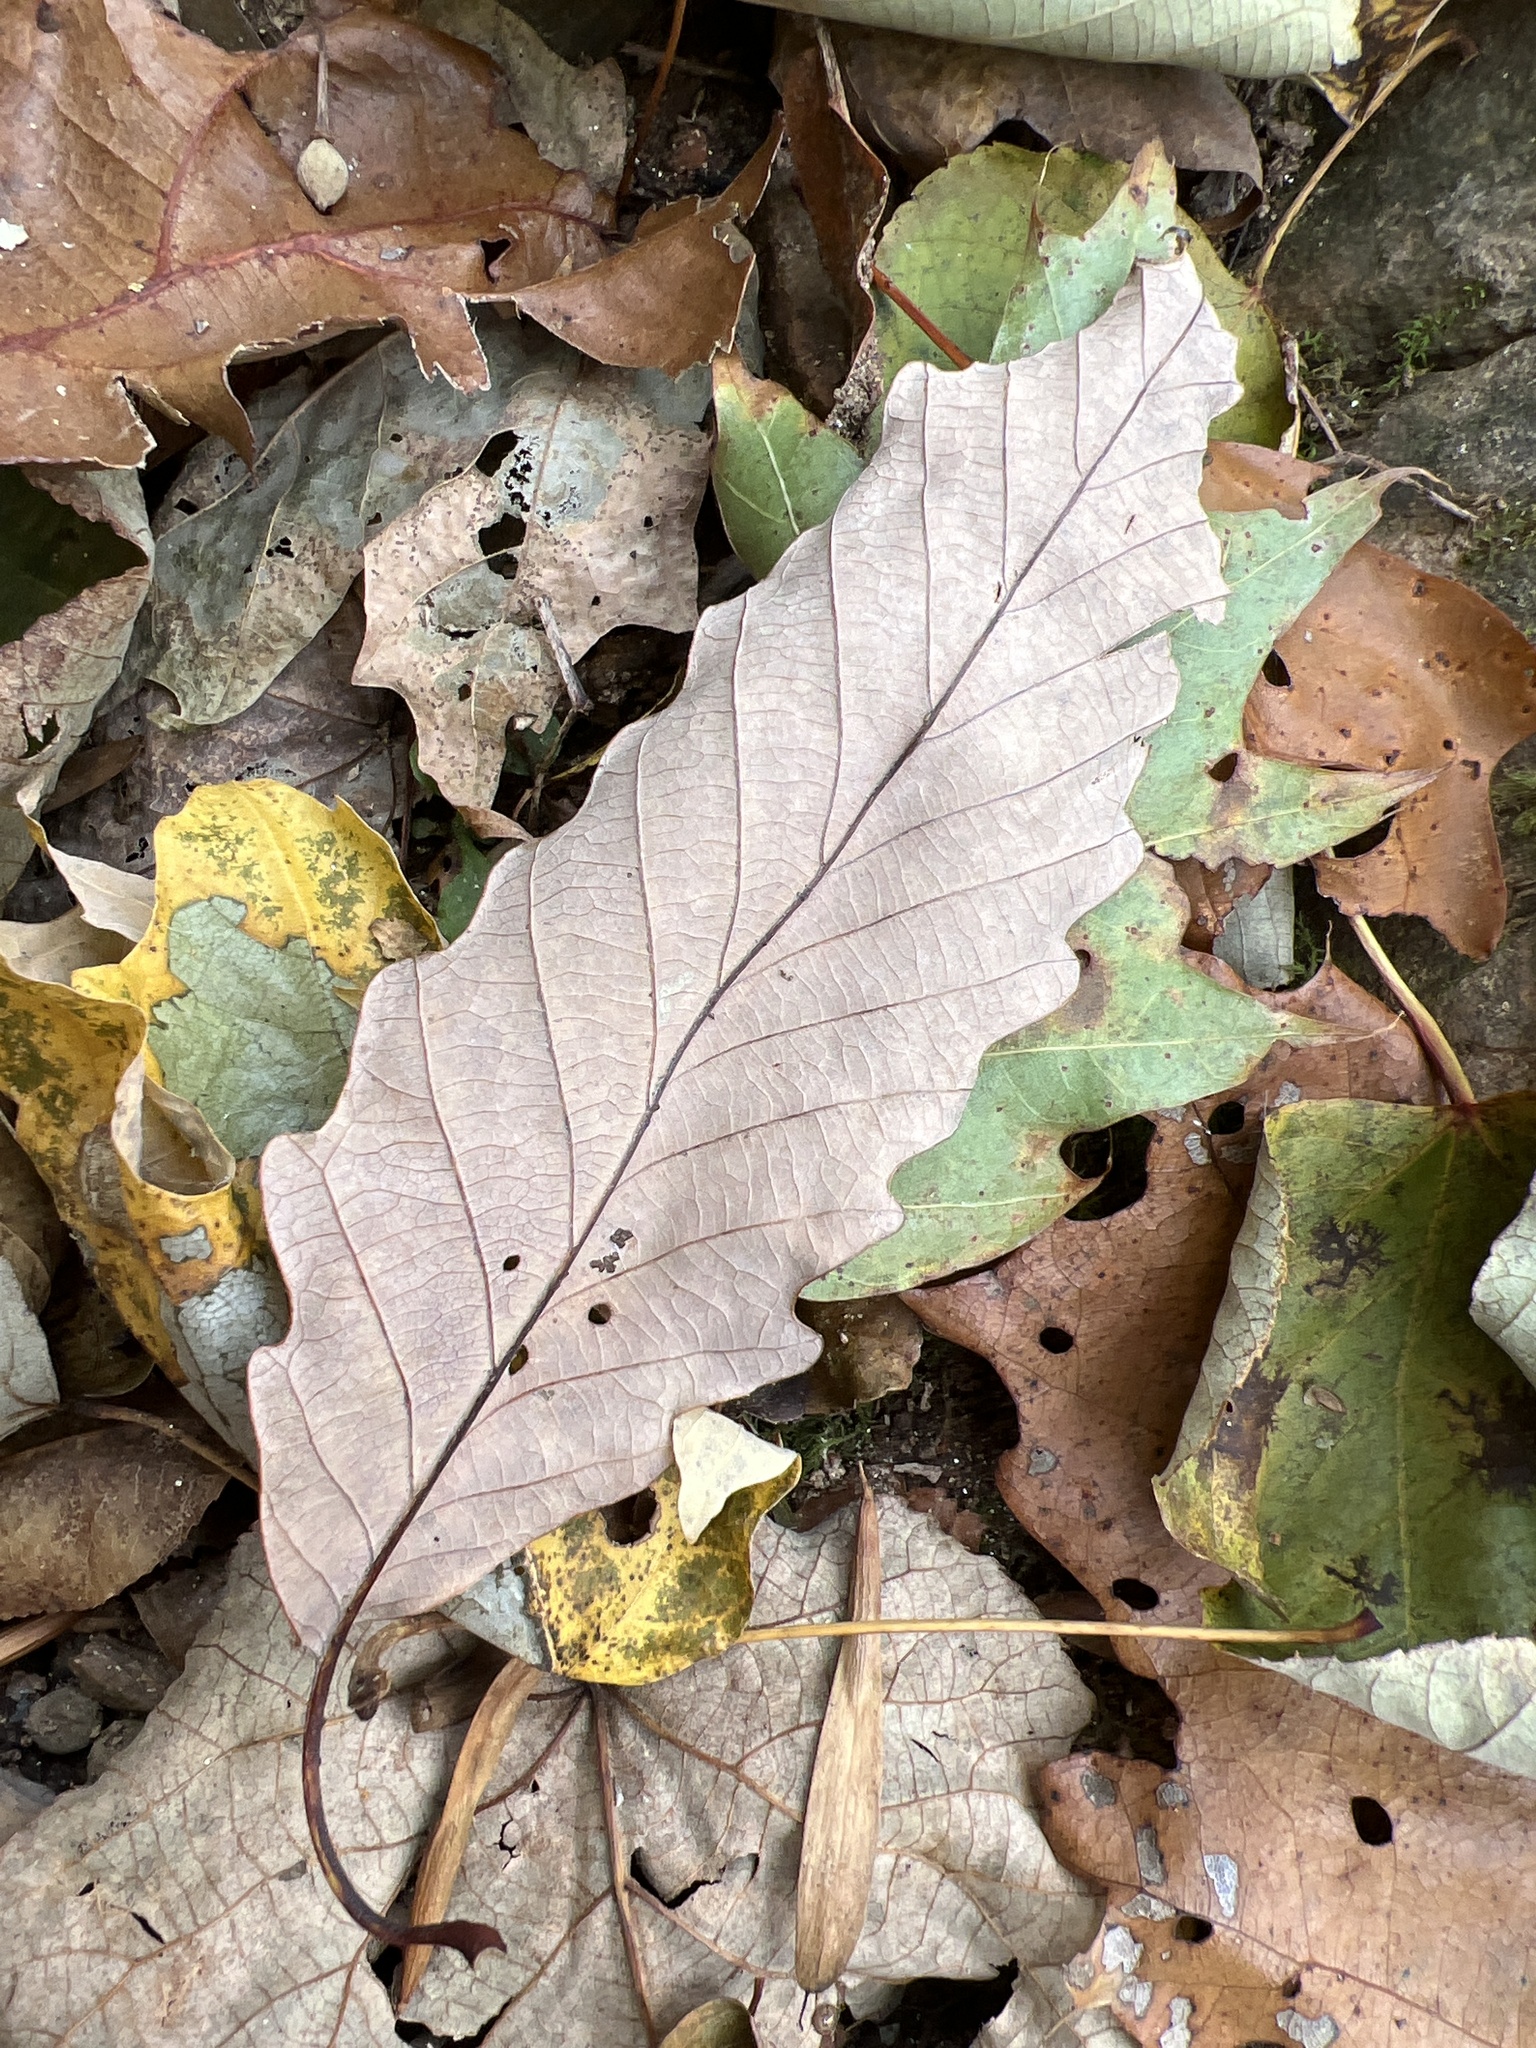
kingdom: Plantae
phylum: Tracheophyta
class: Magnoliopsida
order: Fagales
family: Fagaceae
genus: Quercus
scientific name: Quercus montana
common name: Chestnut oak
